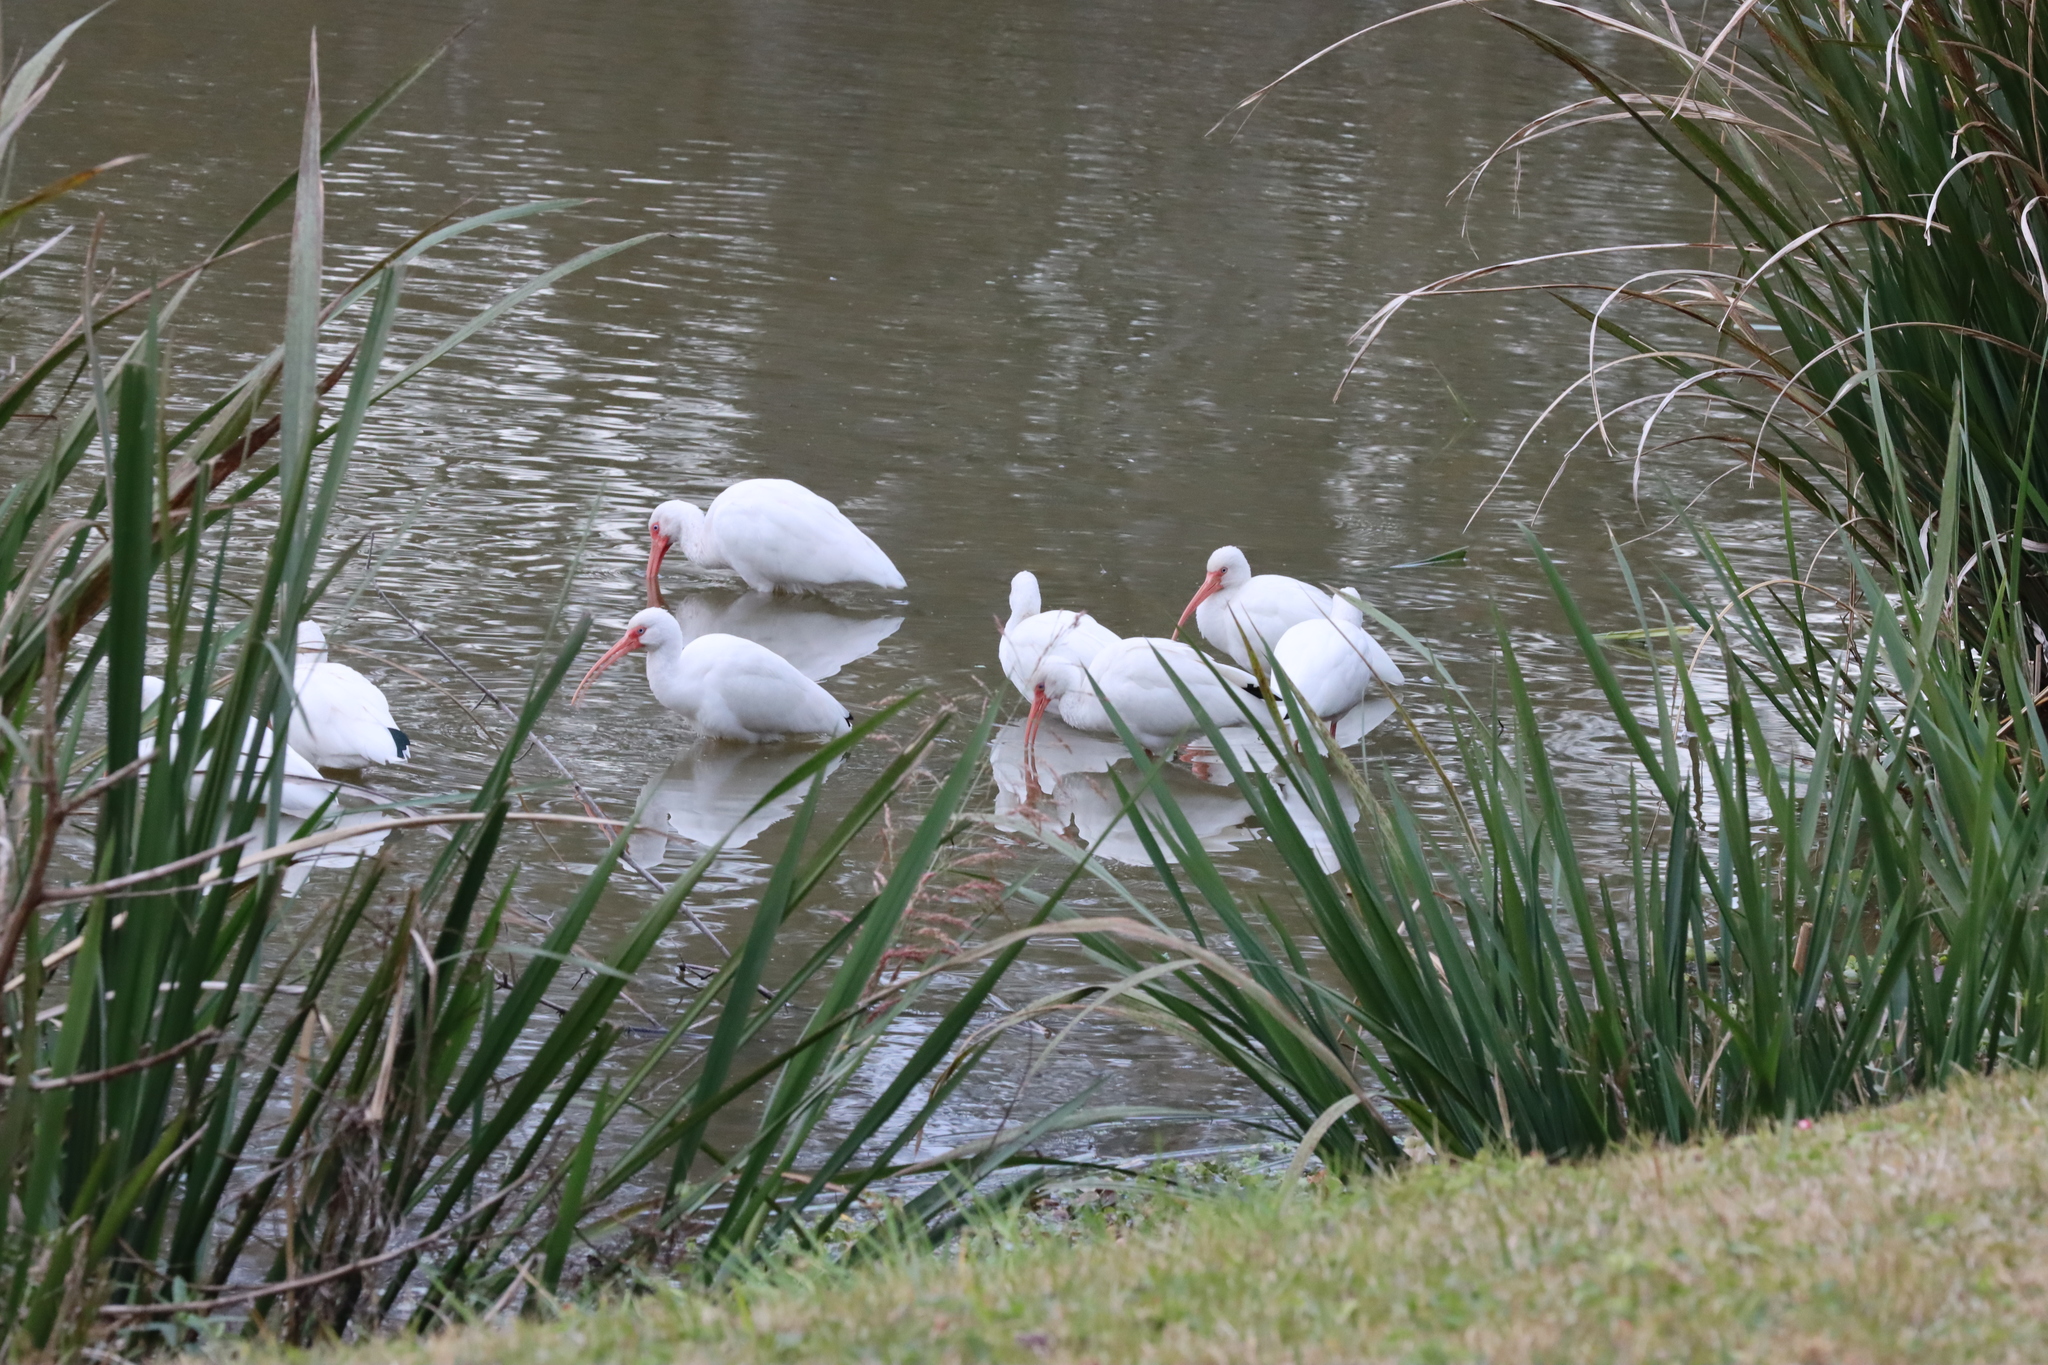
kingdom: Animalia
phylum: Chordata
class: Aves
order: Pelecaniformes
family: Threskiornithidae
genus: Eudocimus
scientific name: Eudocimus albus
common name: White ibis
